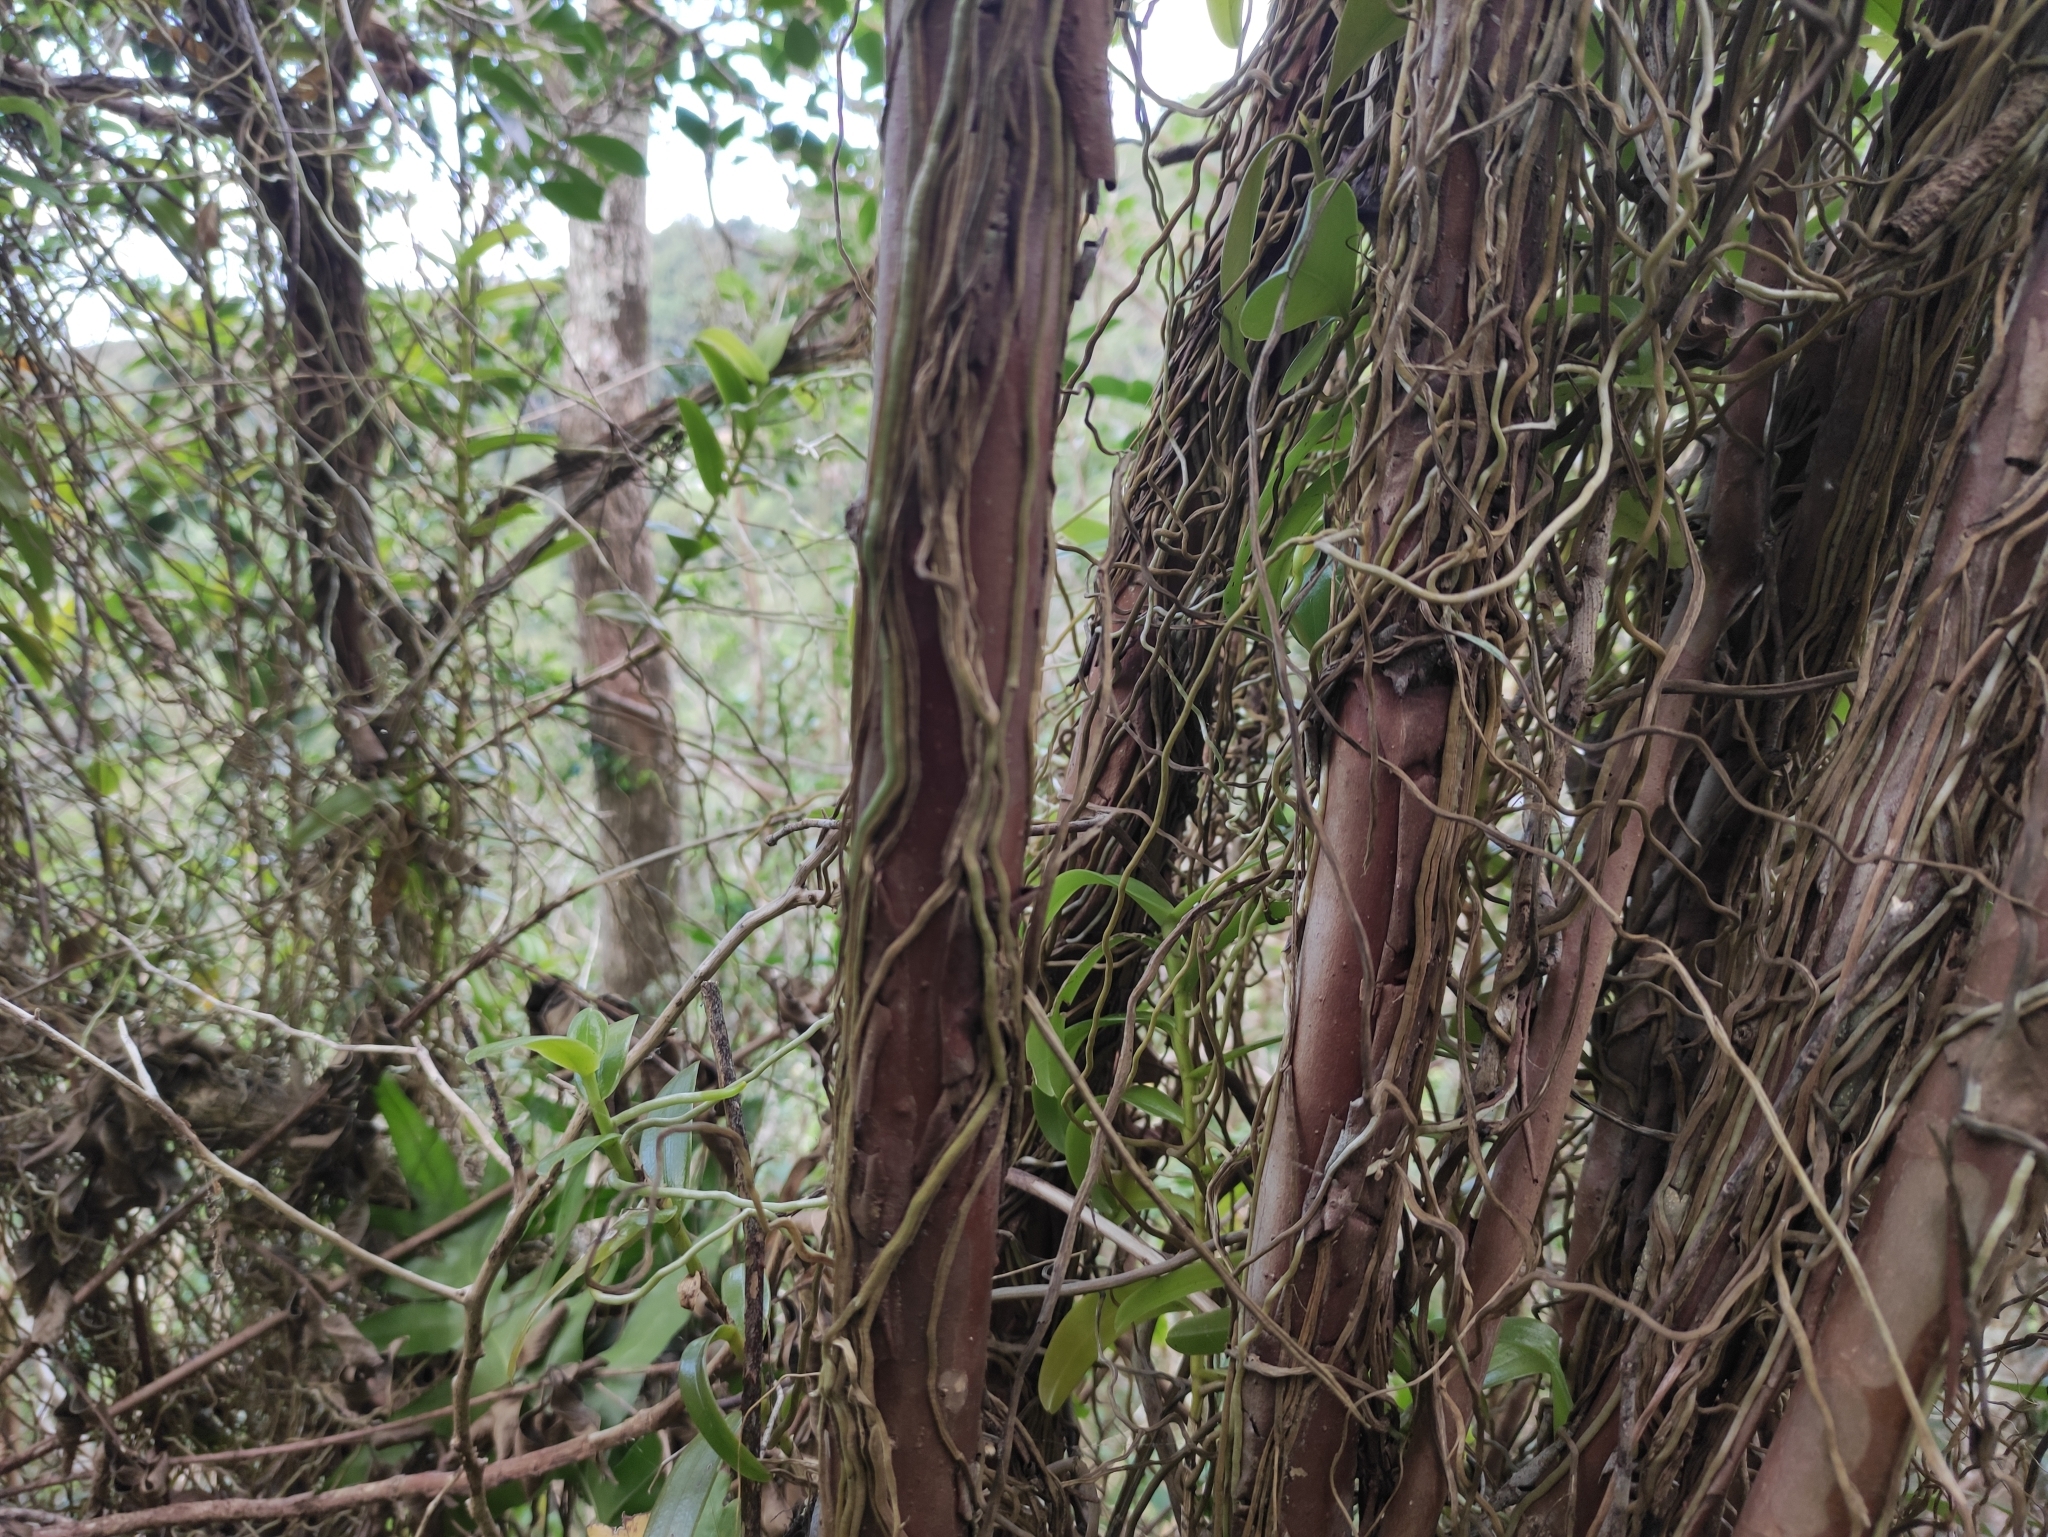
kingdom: Plantae
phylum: Tracheophyta
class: Liliopsida
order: Asparagales
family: Orchidaceae
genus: Cryptopus
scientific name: Cryptopus elatus
